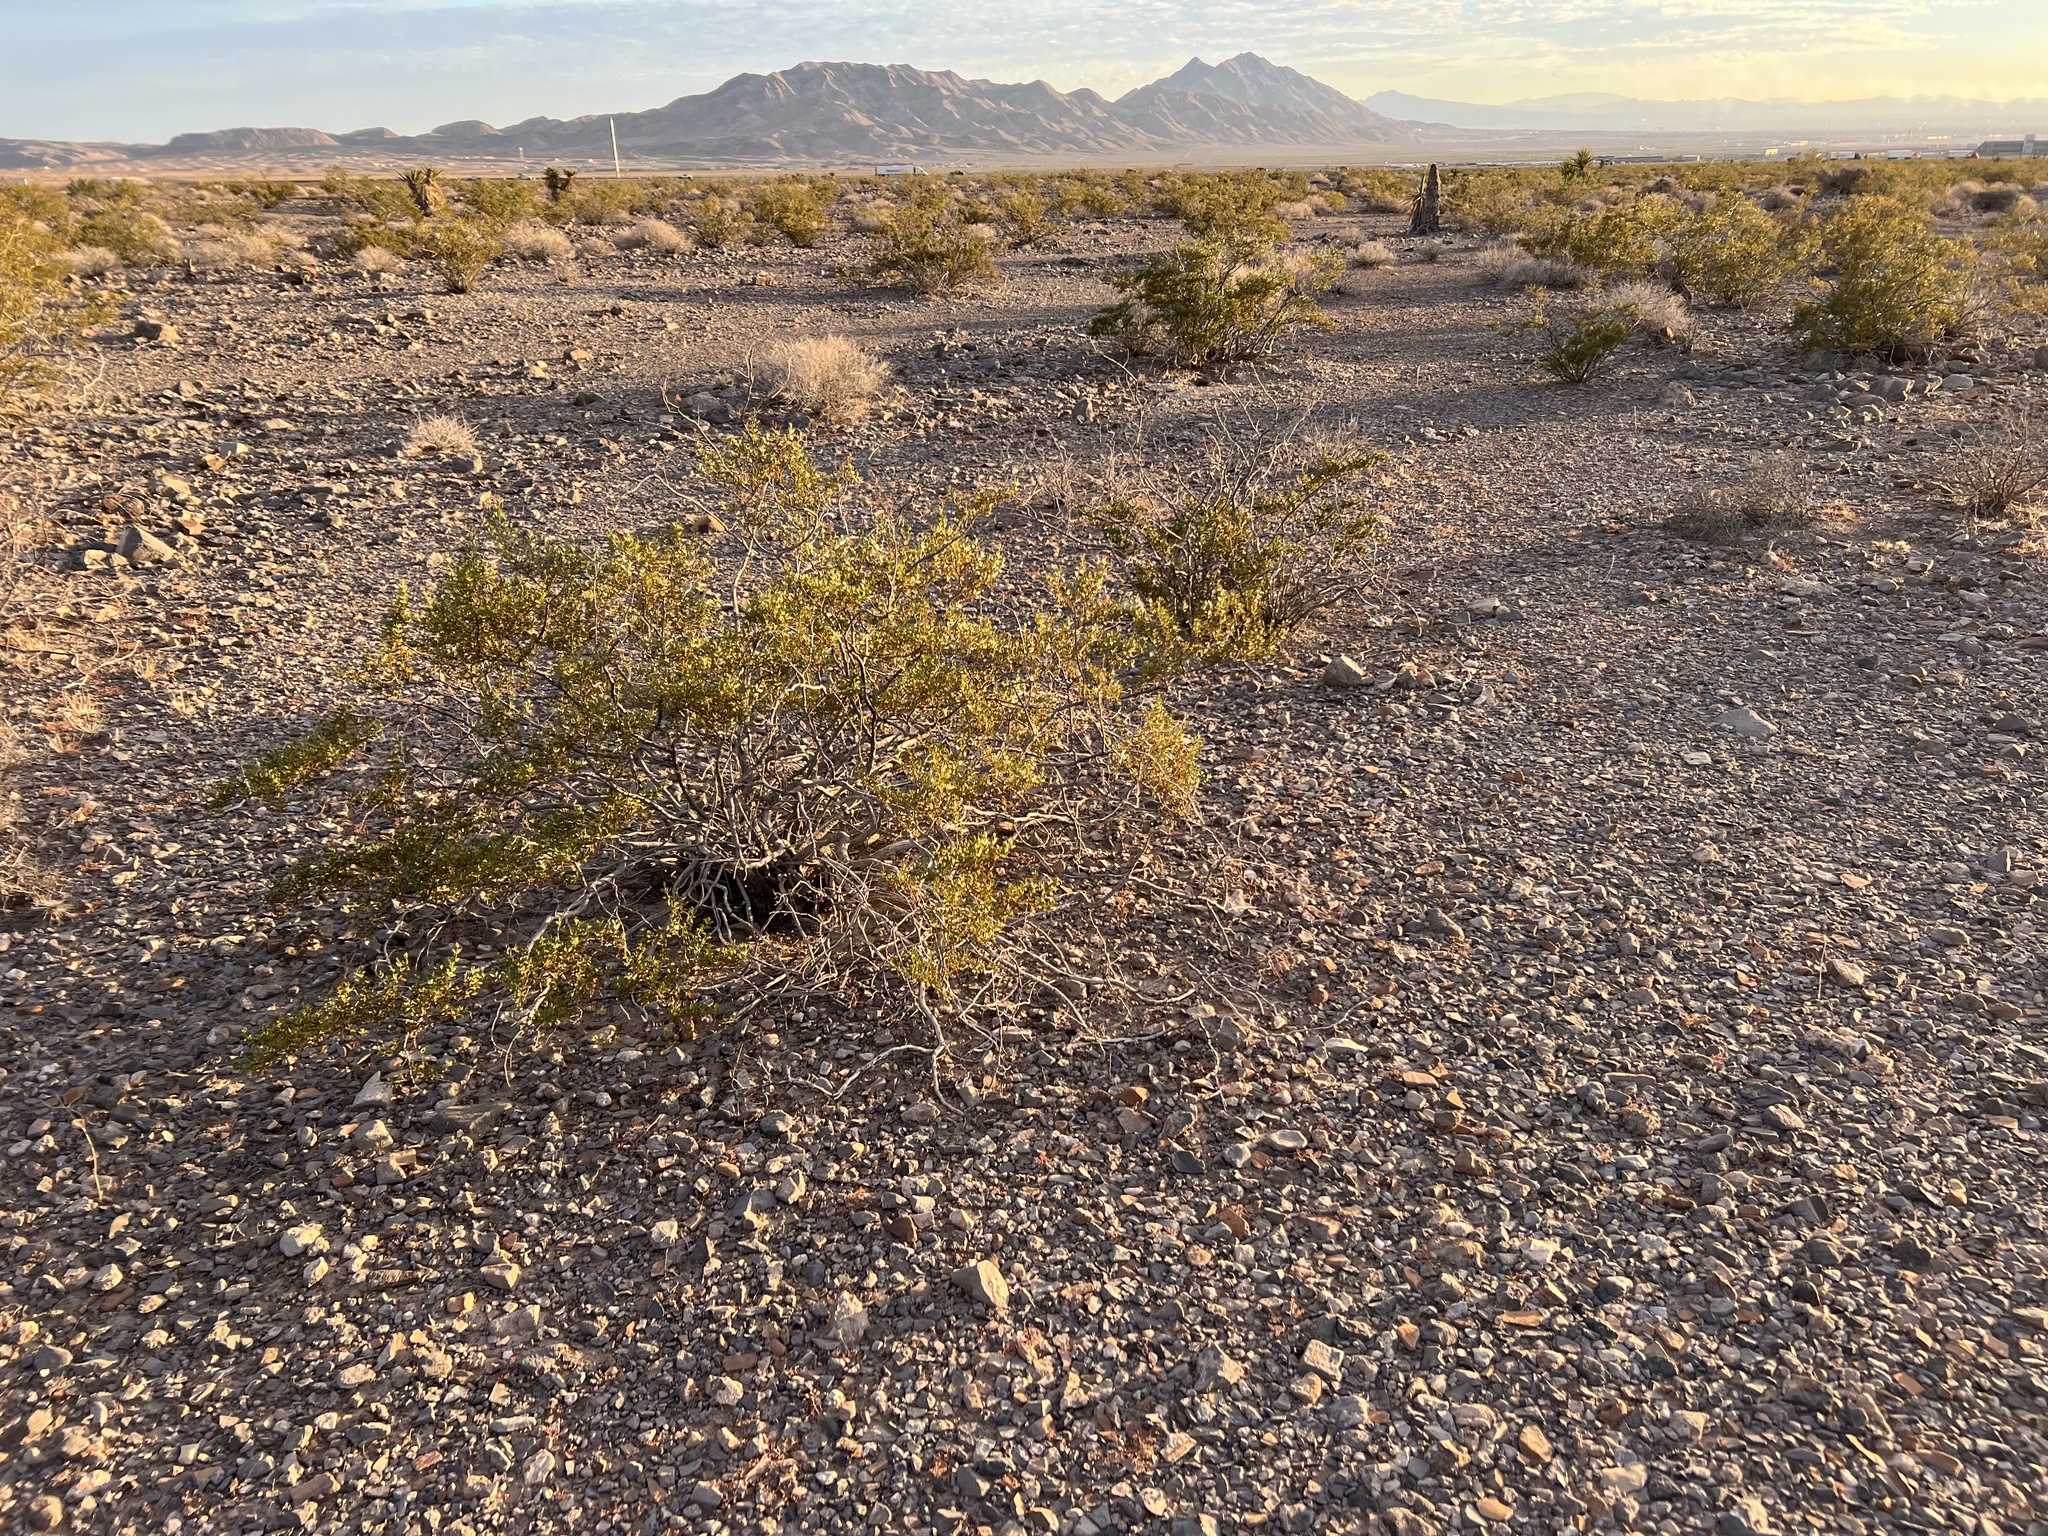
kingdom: Plantae
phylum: Tracheophyta
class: Magnoliopsida
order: Zygophyllales
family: Zygophyllaceae
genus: Larrea
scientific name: Larrea tridentata
